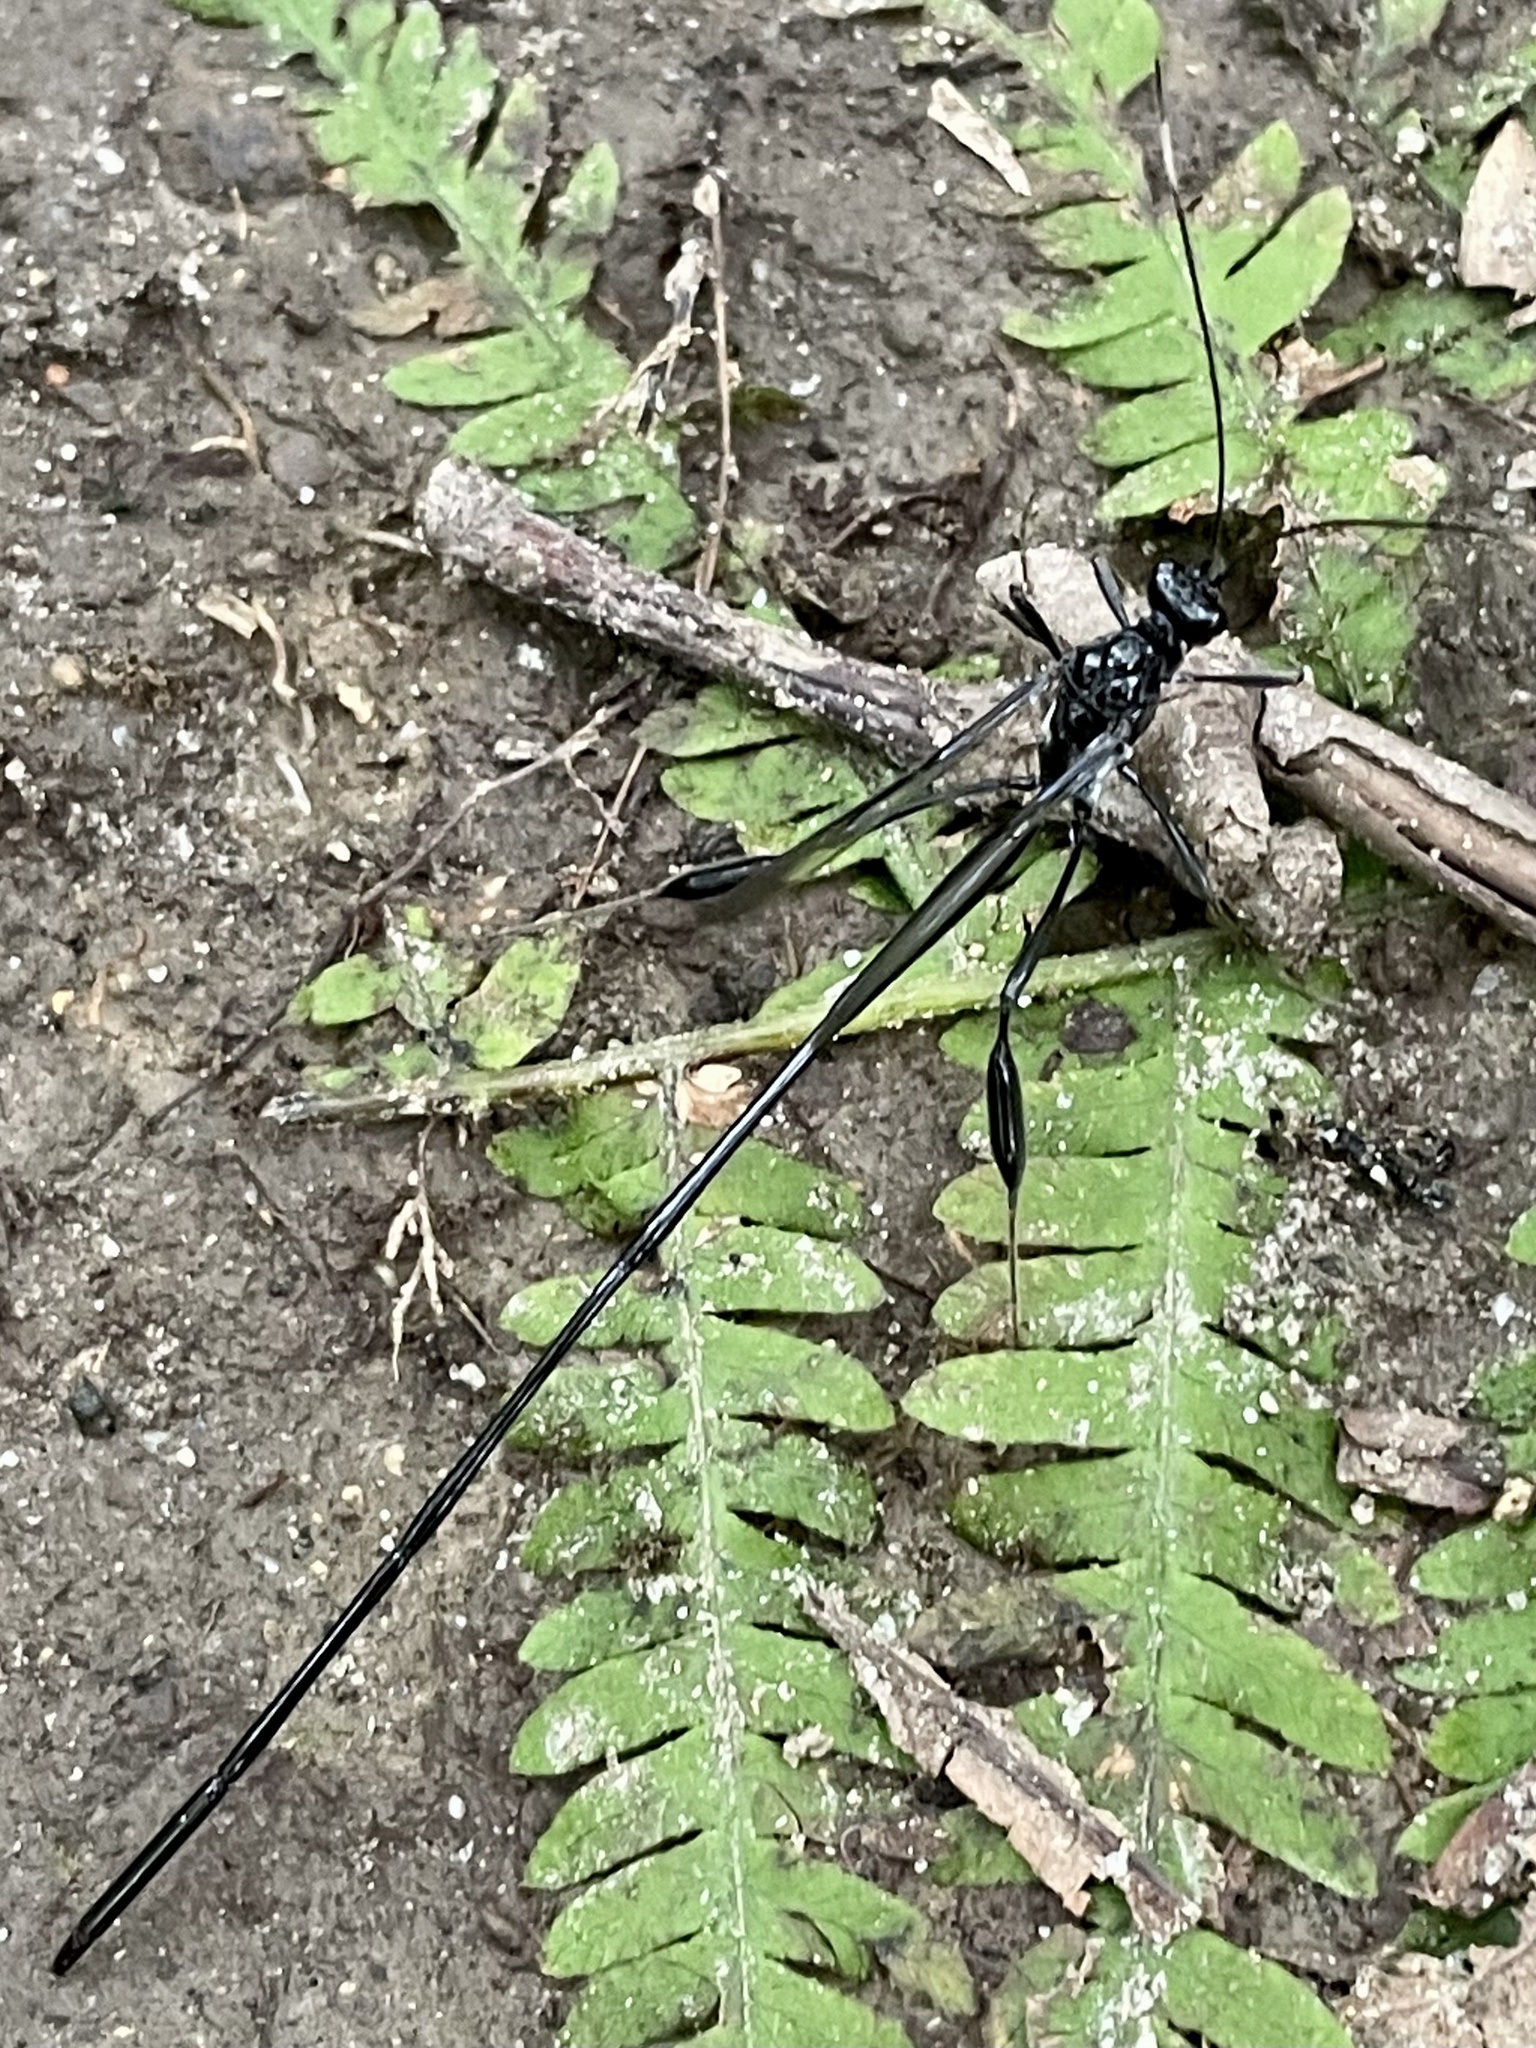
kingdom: Animalia
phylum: Arthropoda
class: Insecta
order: Hymenoptera
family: Pelecinidae
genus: Pelecinus
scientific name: Pelecinus polyturator
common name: American pelecinid wasp
